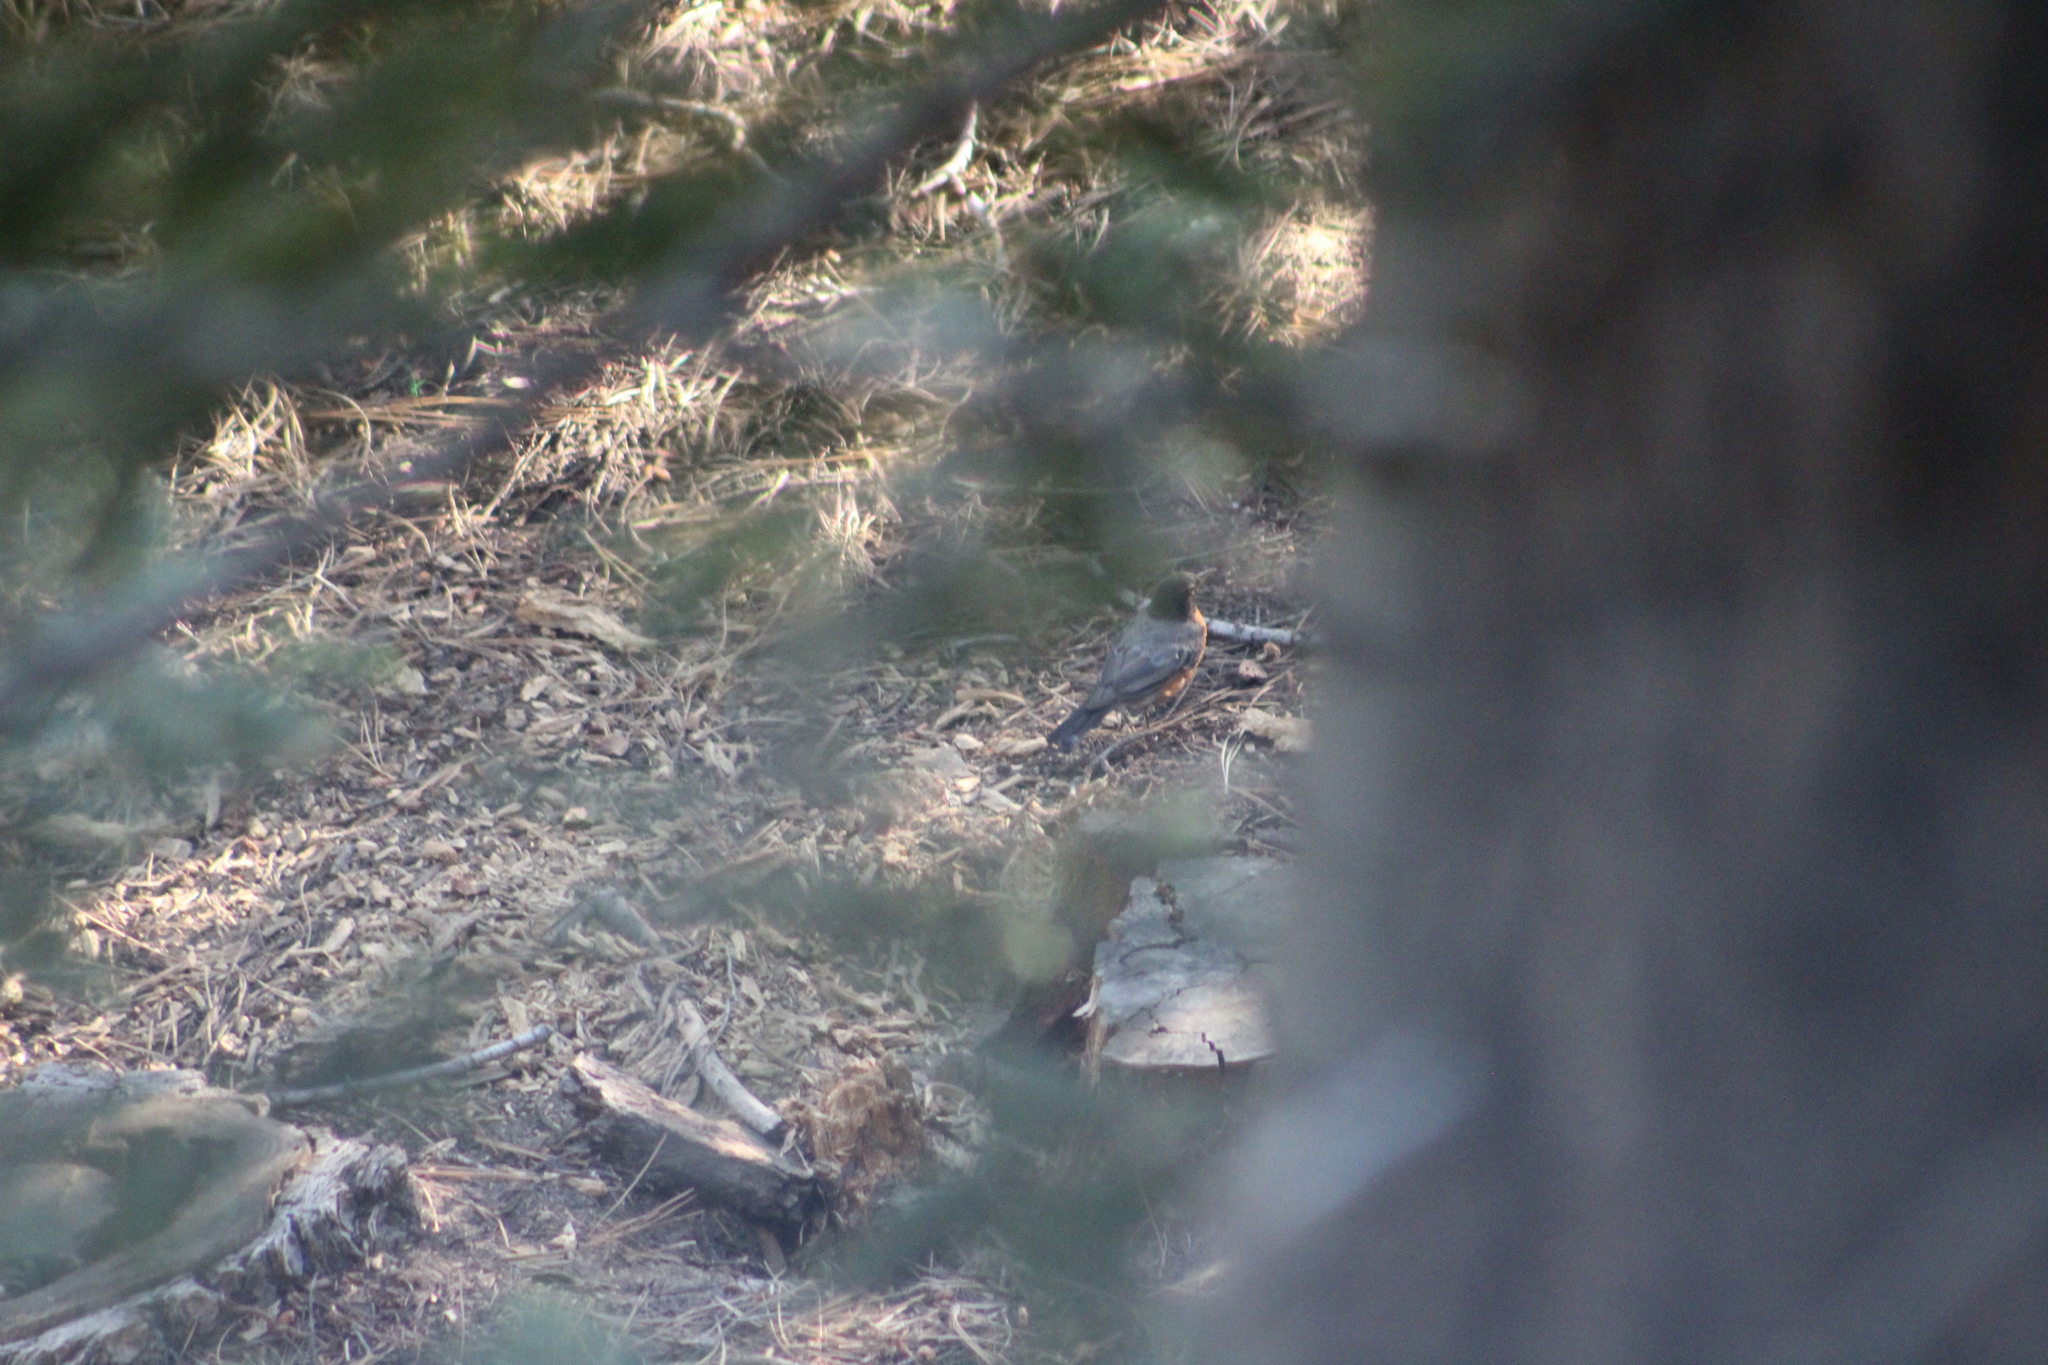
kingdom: Animalia
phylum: Chordata
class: Aves
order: Passeriformes
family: Turdidae
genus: Turdus
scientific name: Turdus migratorius
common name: American robin
